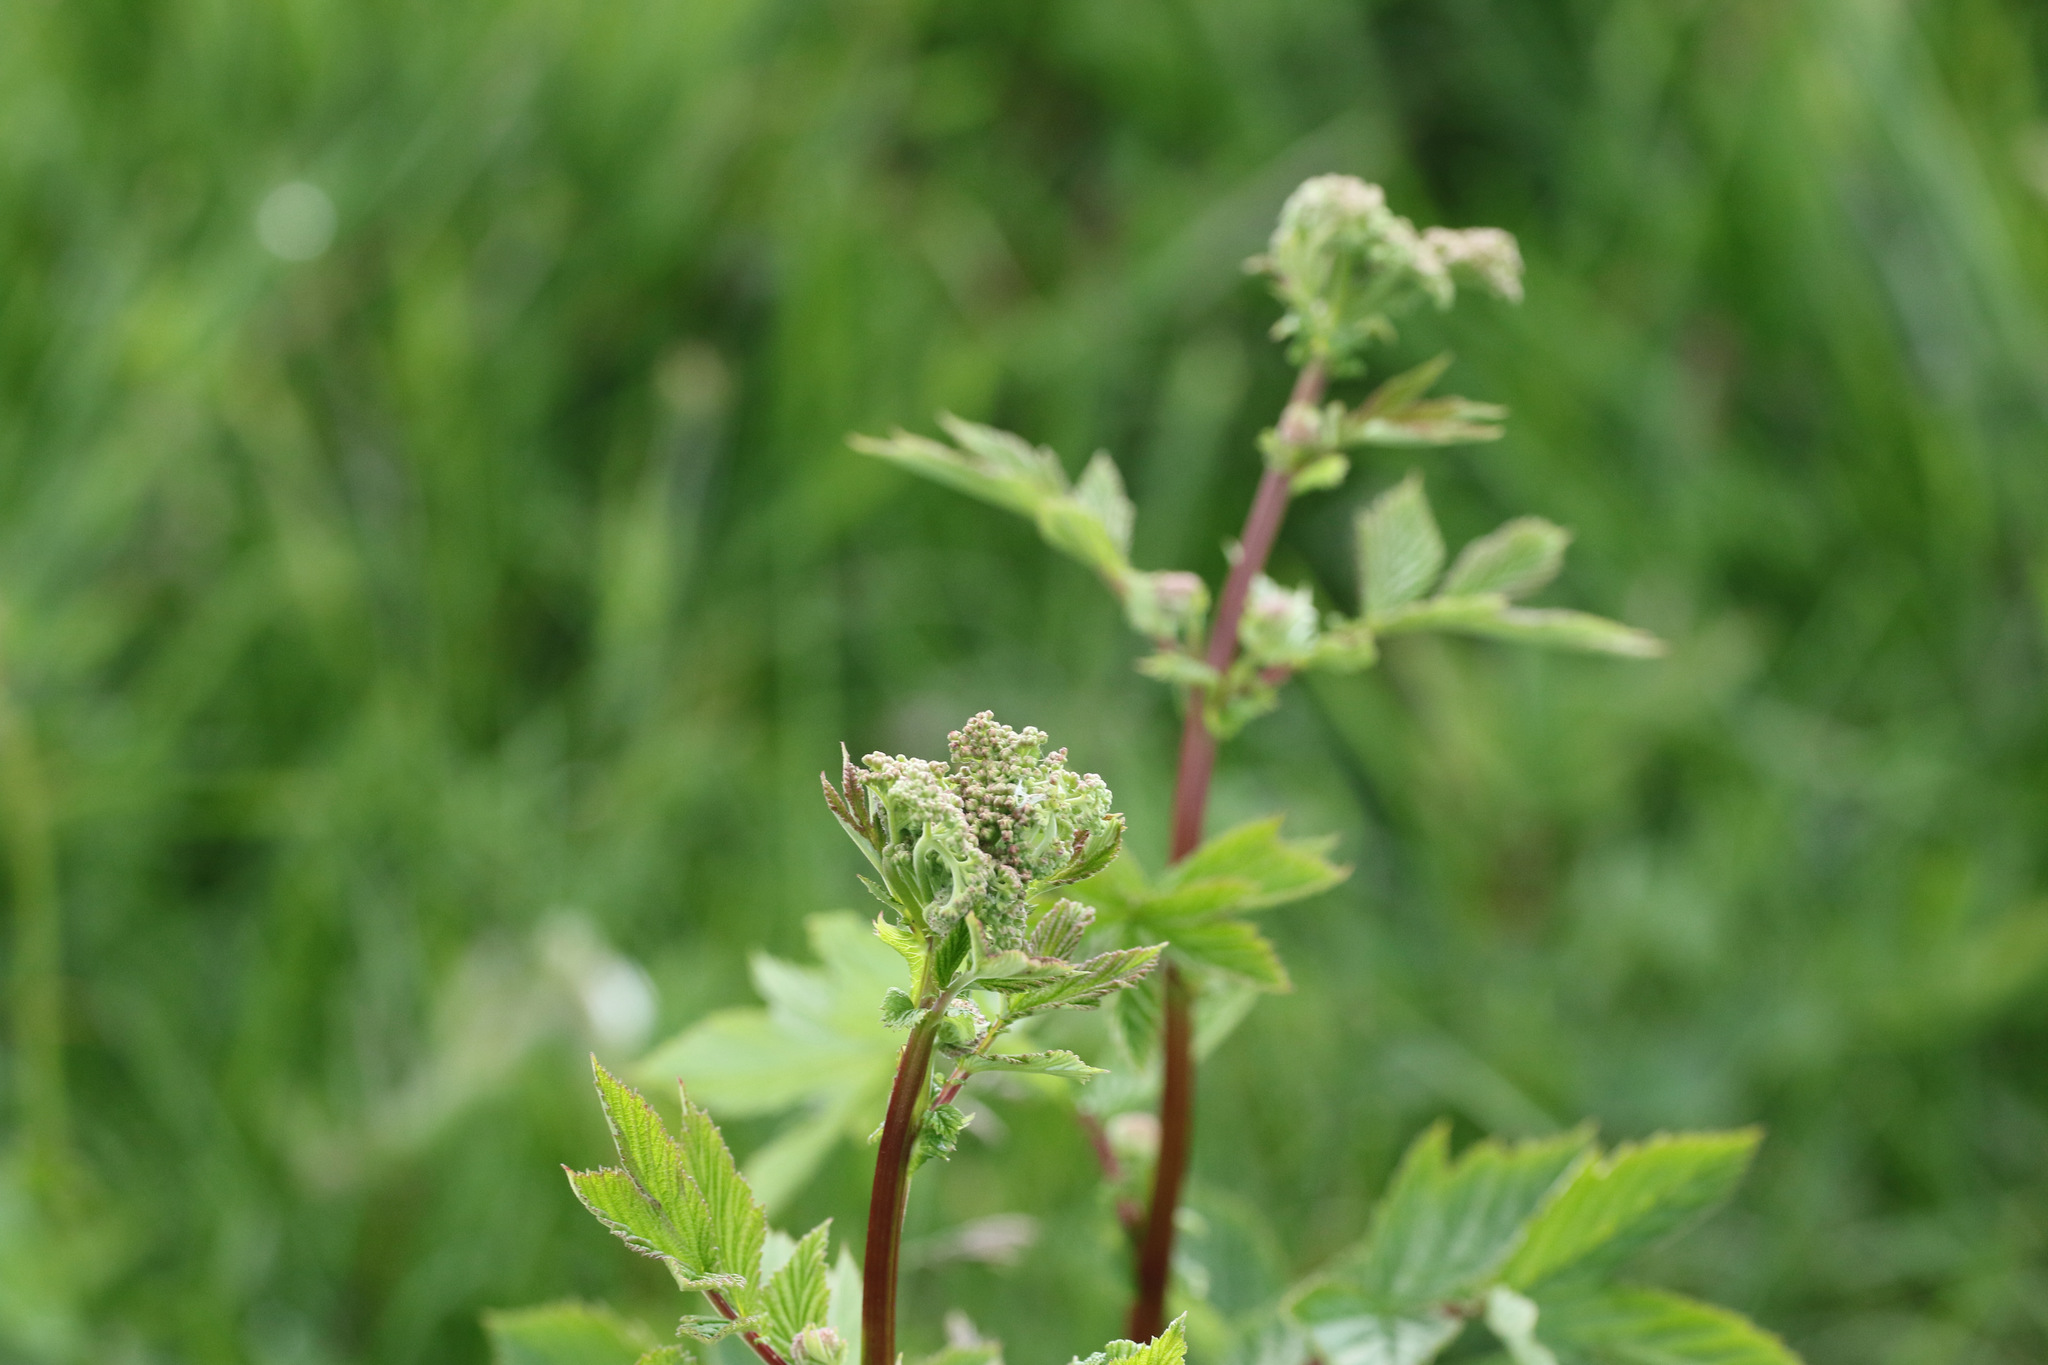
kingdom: Plantae
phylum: Tracheophyta
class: Magnoliopsida
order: Rosales
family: Rosaceae
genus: Filipendula
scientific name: Filipendula ulmaria
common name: Meadowsweet
